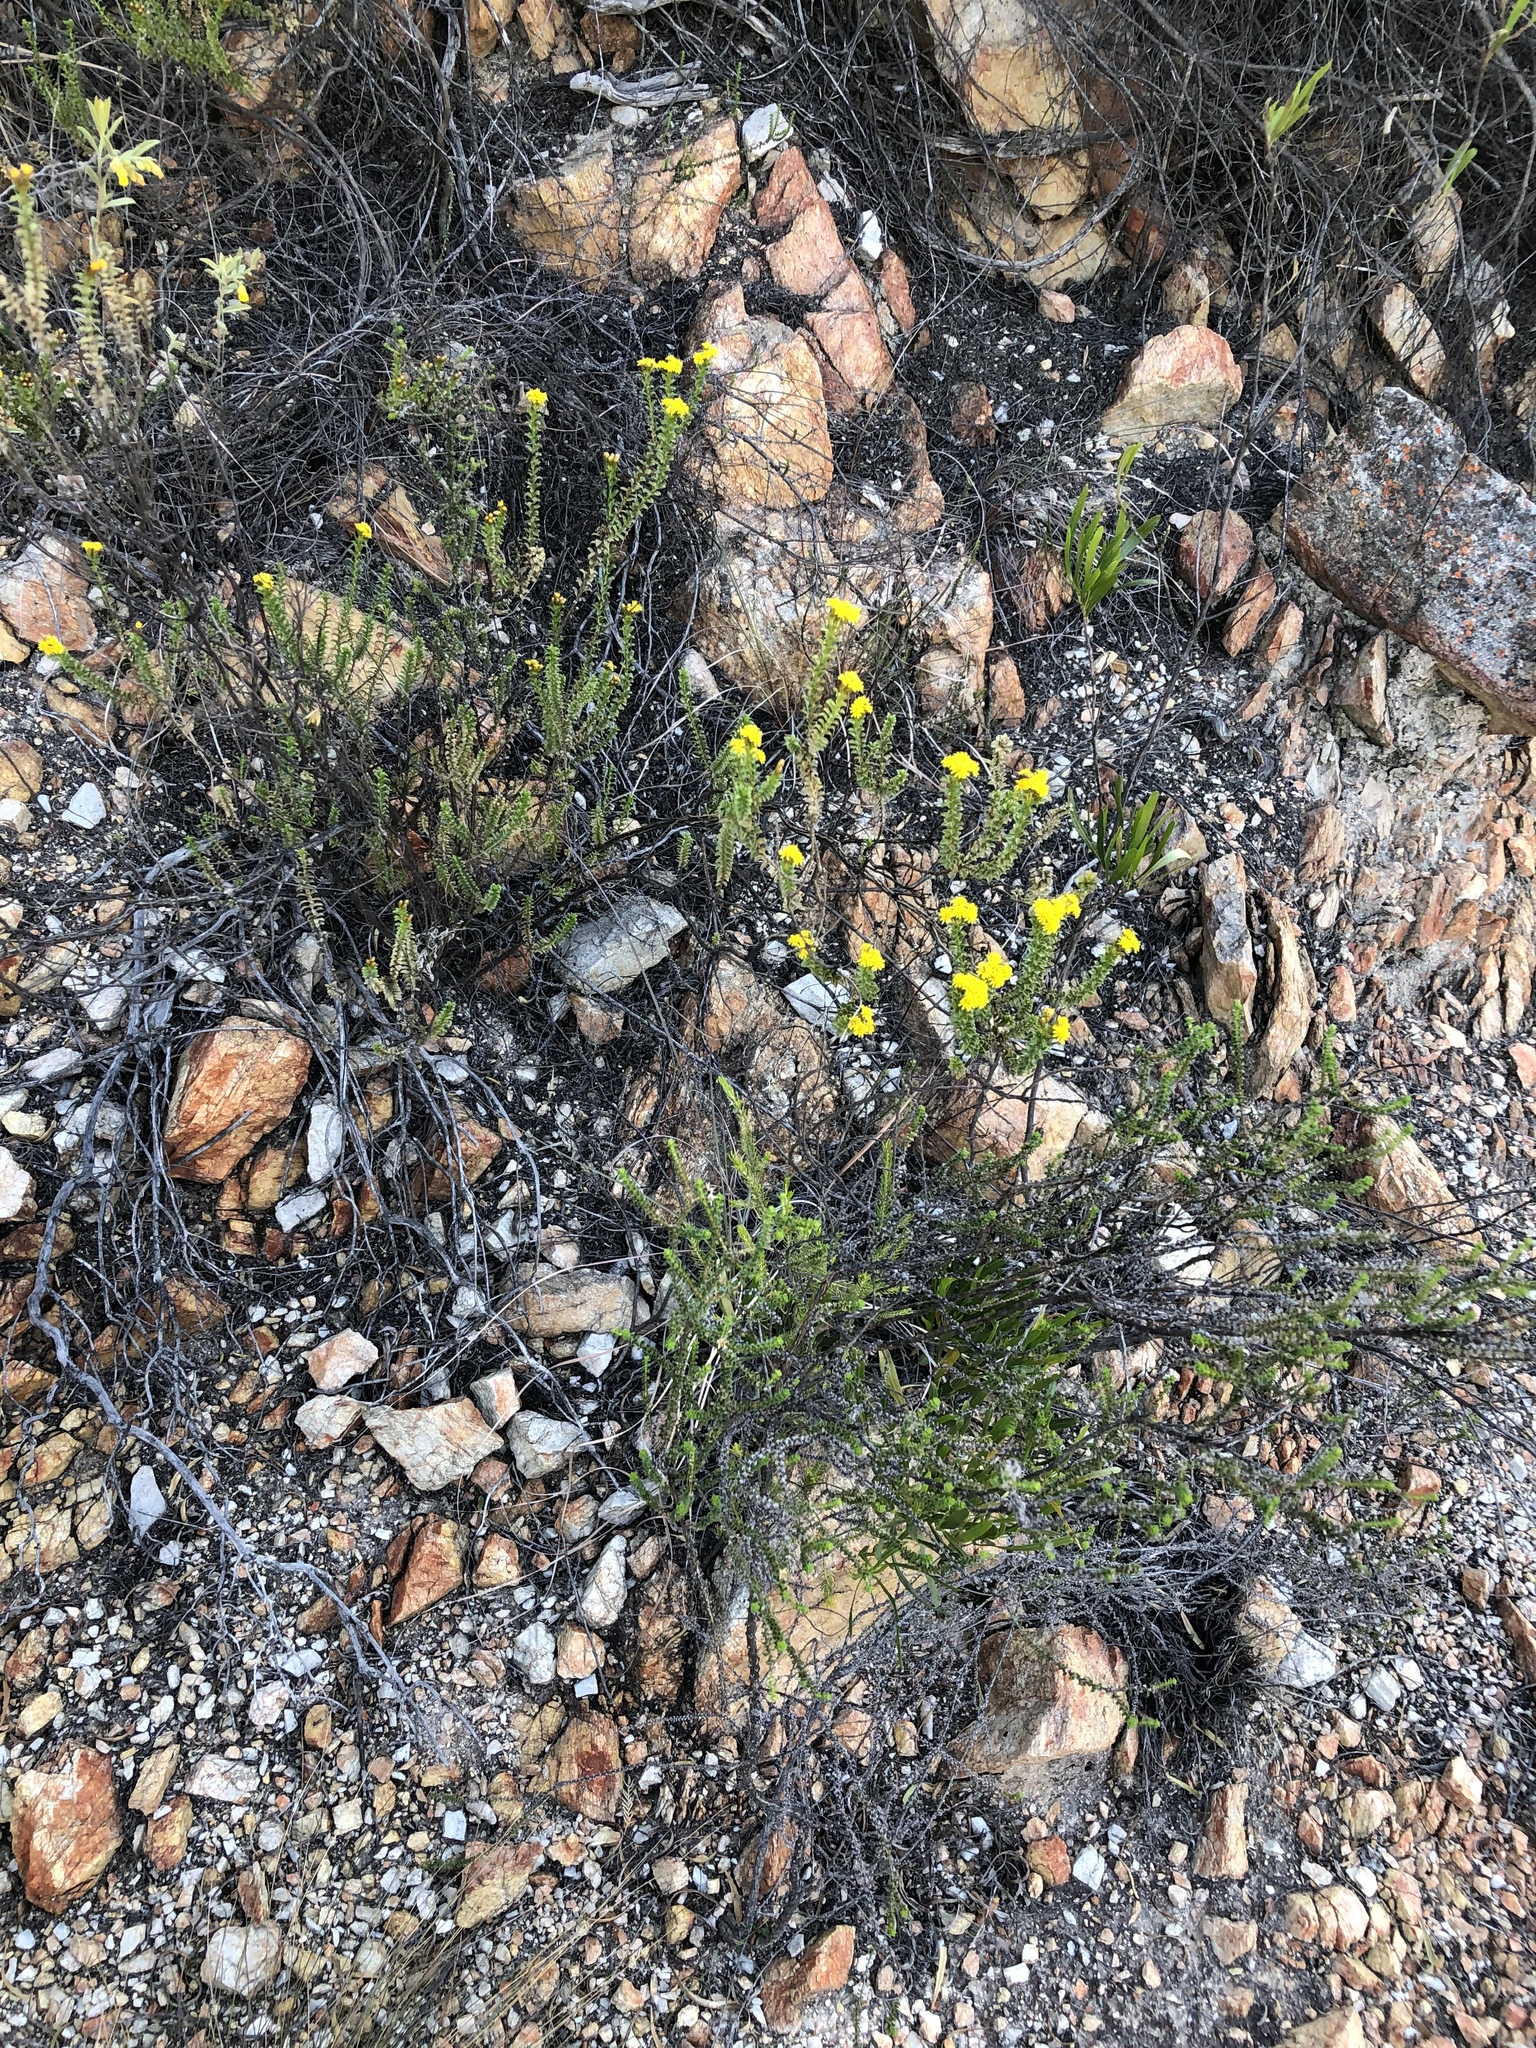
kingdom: Plantae
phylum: Tracheophyta
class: Magnoliopsida
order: Asterales
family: Asteraceae
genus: Oedera
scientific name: Oedera squarrosa
